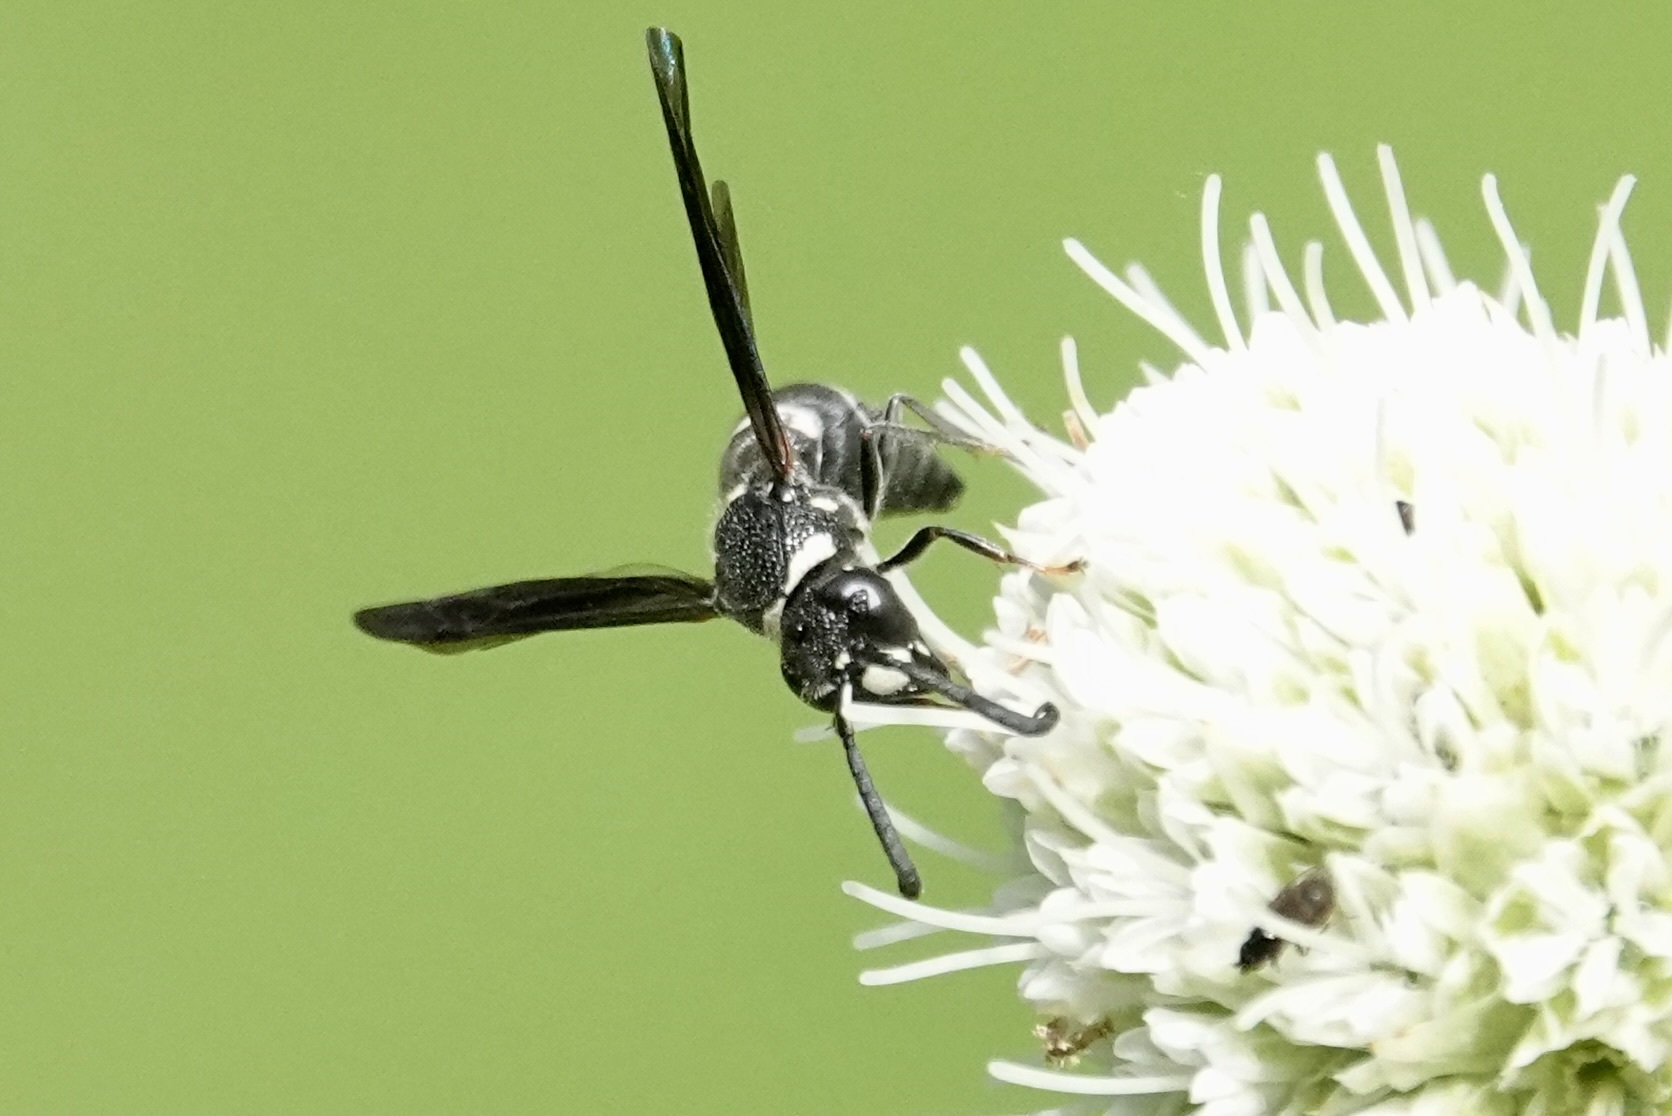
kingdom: Animalia
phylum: Arthropoda
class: Insecta
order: Hymenoptera
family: Eumenidae
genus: Euodynerus
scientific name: Euodynerus megaera
